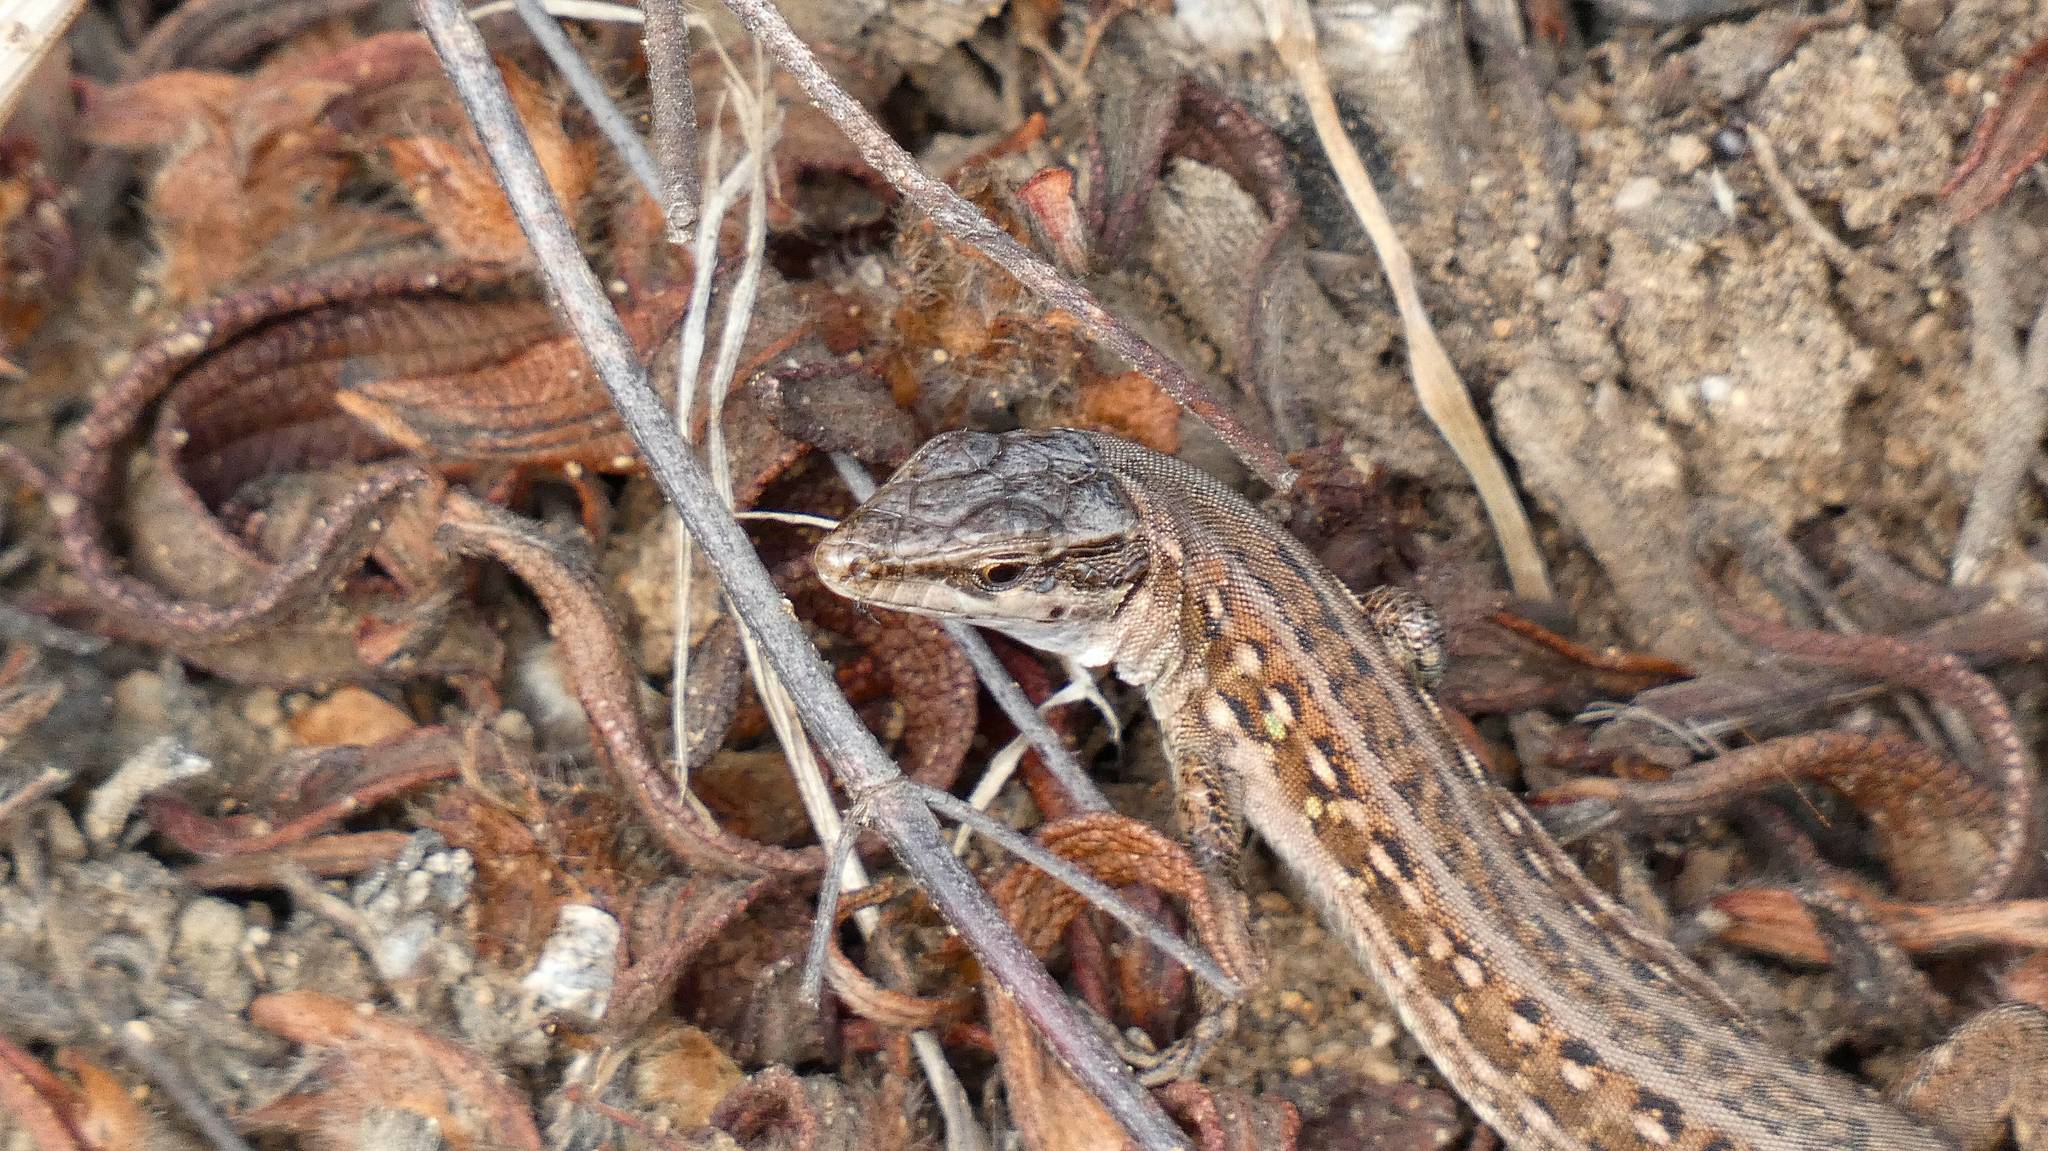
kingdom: Animalia
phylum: Chordata
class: Squamata
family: Lacertidae
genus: Podarcis
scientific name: Podarcis siculus
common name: Italian wall lizard
